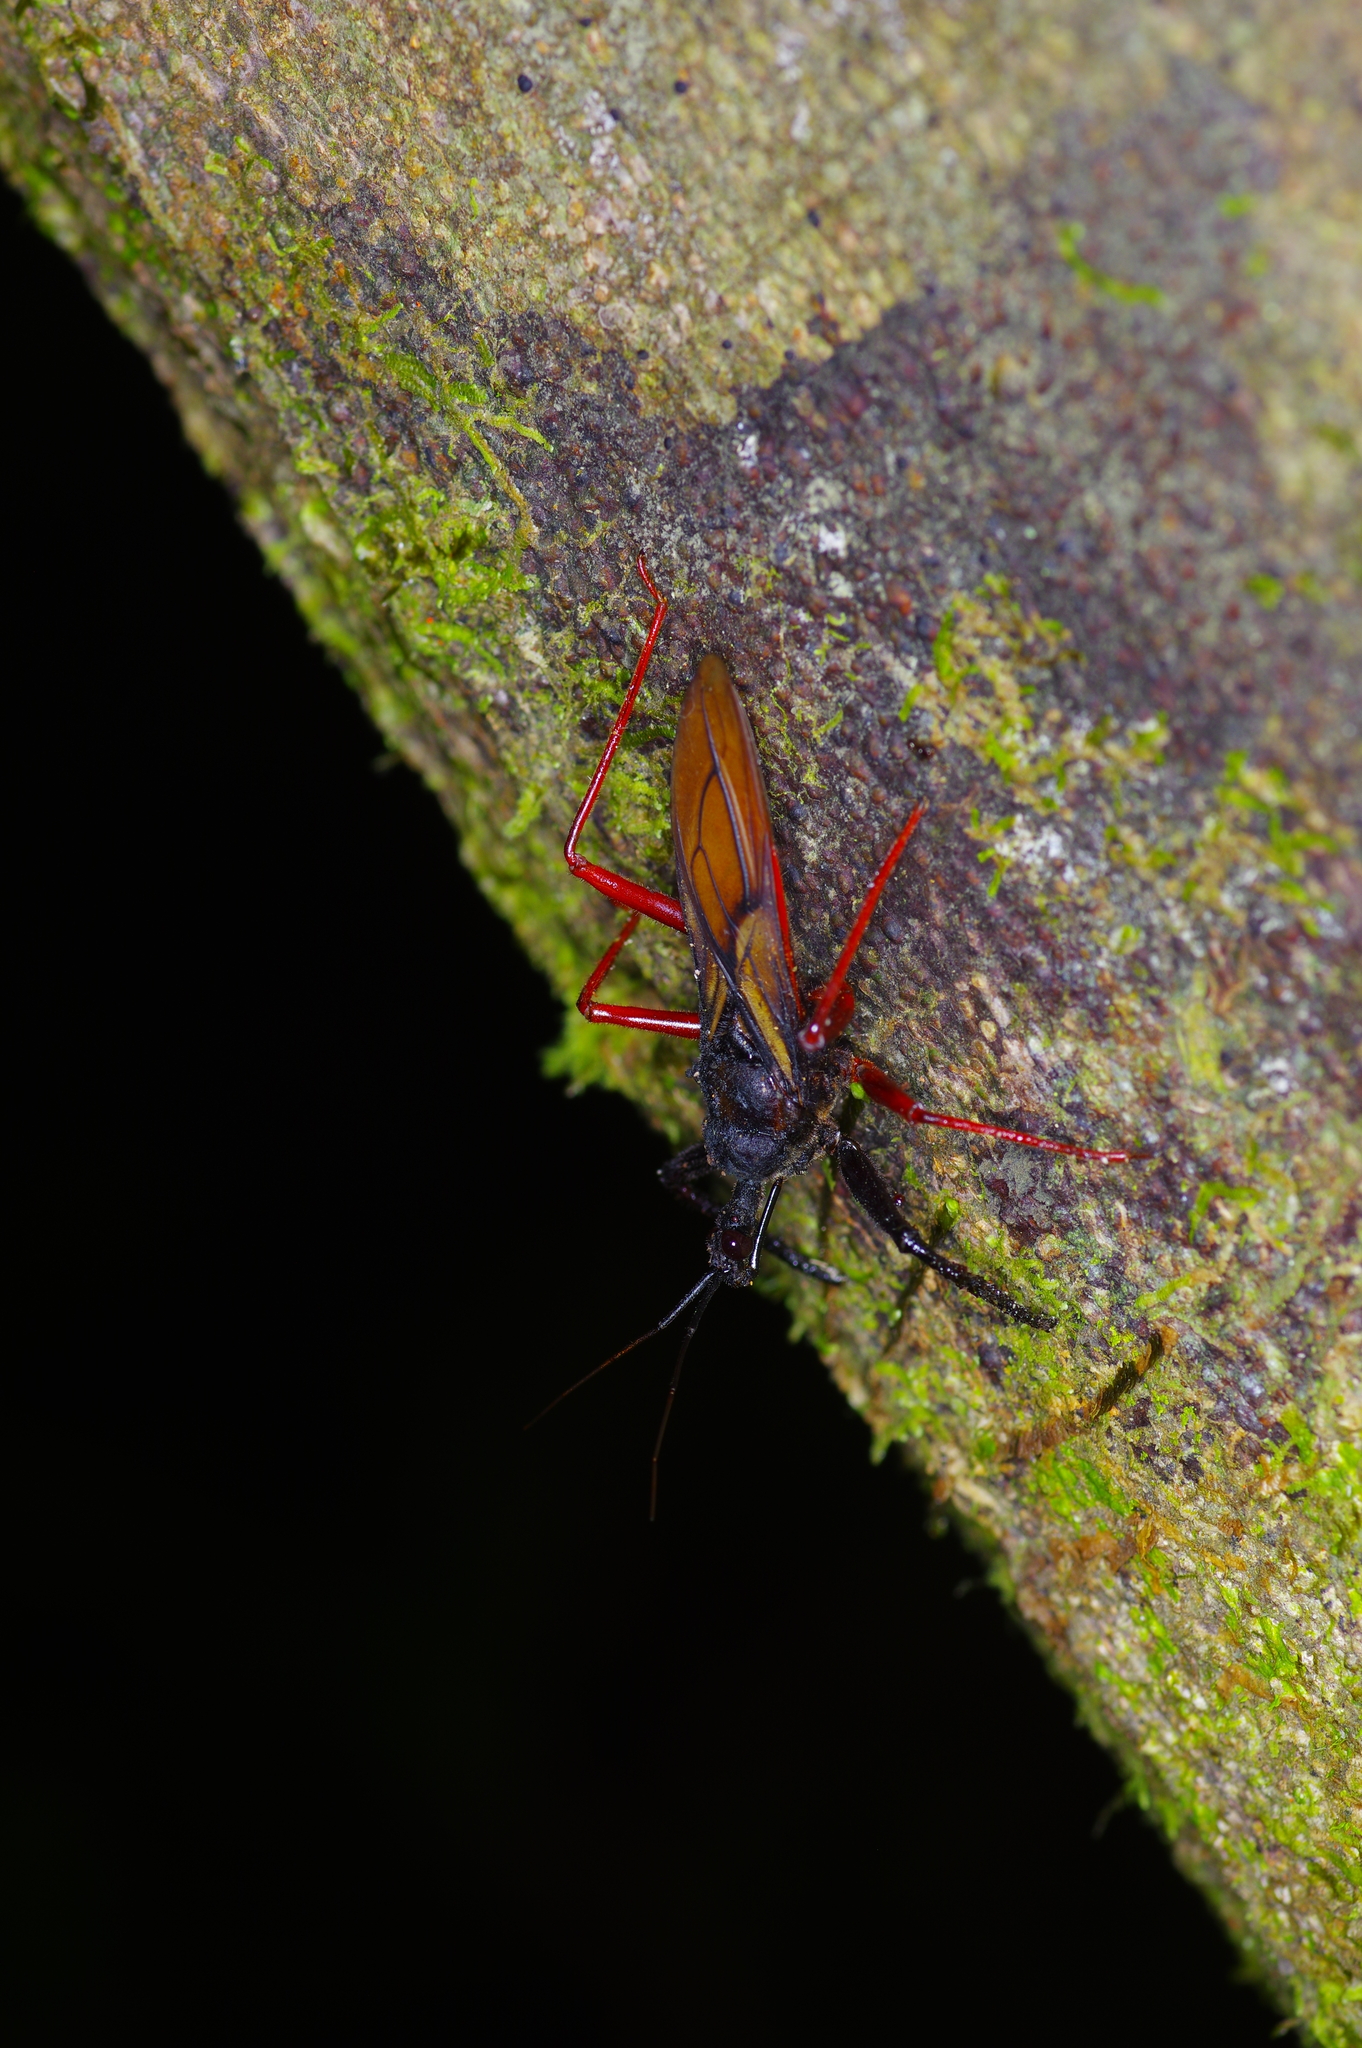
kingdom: Animalia
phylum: Arthropoda
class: Insecta
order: Hemiptera
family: Reduviidae
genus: Manicocoris
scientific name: Manicocoris rufipes
